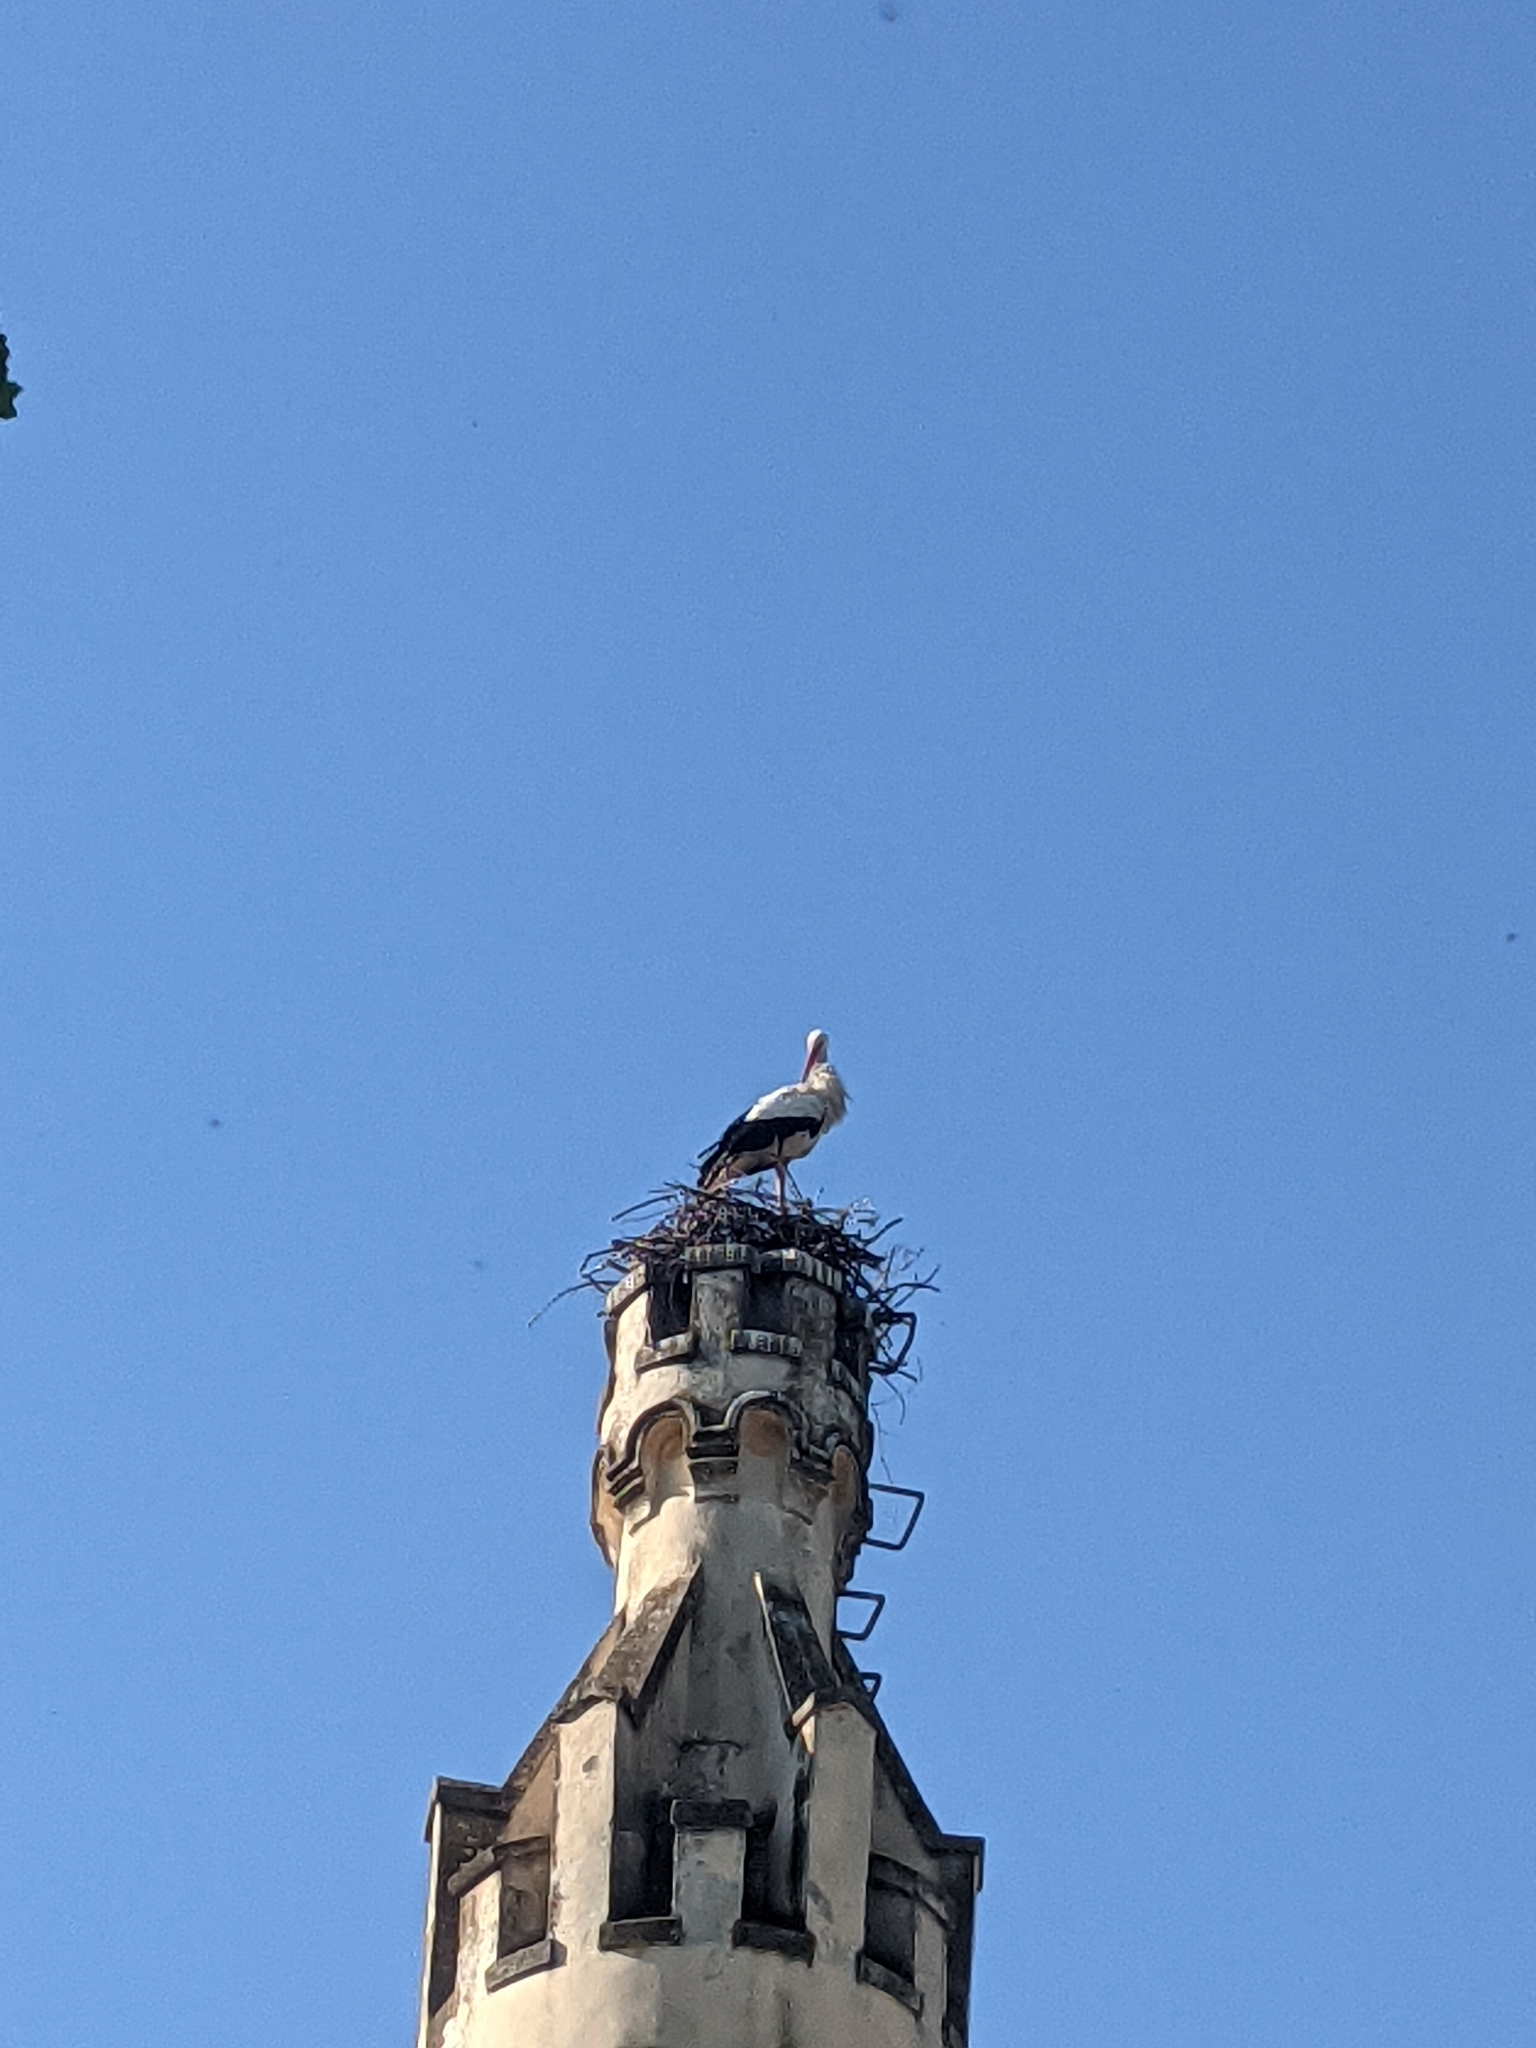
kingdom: Animalia
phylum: Chordata
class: Aves
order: Ciconiiformes
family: Ciconiidae
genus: Ciconia
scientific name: Ciconia ciconia
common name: White stork
